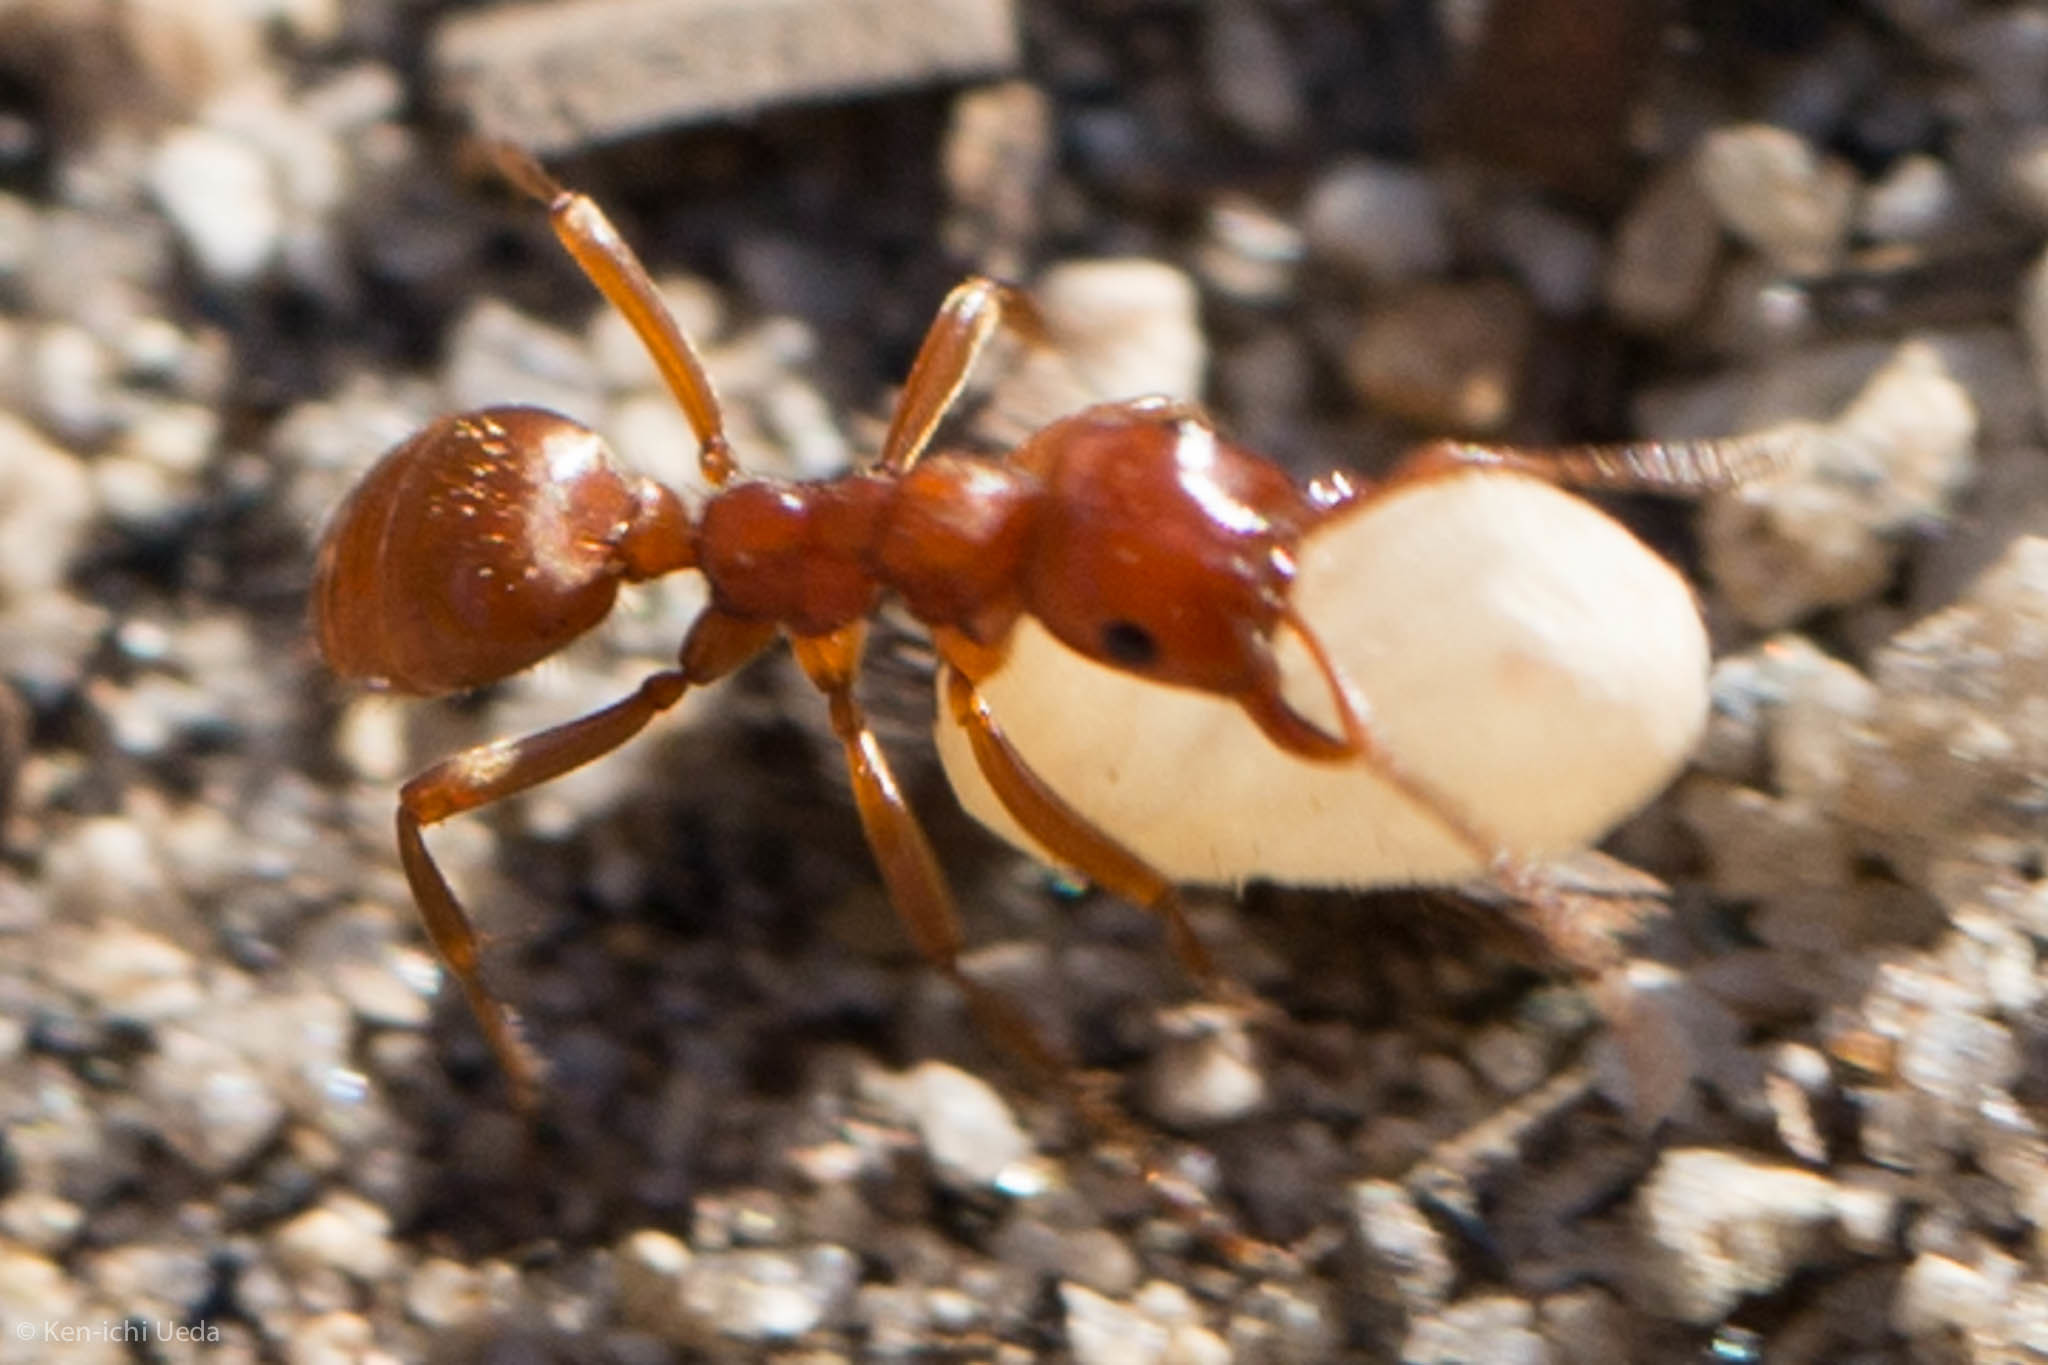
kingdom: Animalia
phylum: Arthropoda
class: Insecta
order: Hymenoptera
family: Formicidae
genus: Polyergus
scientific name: Polyergus mexicanus
